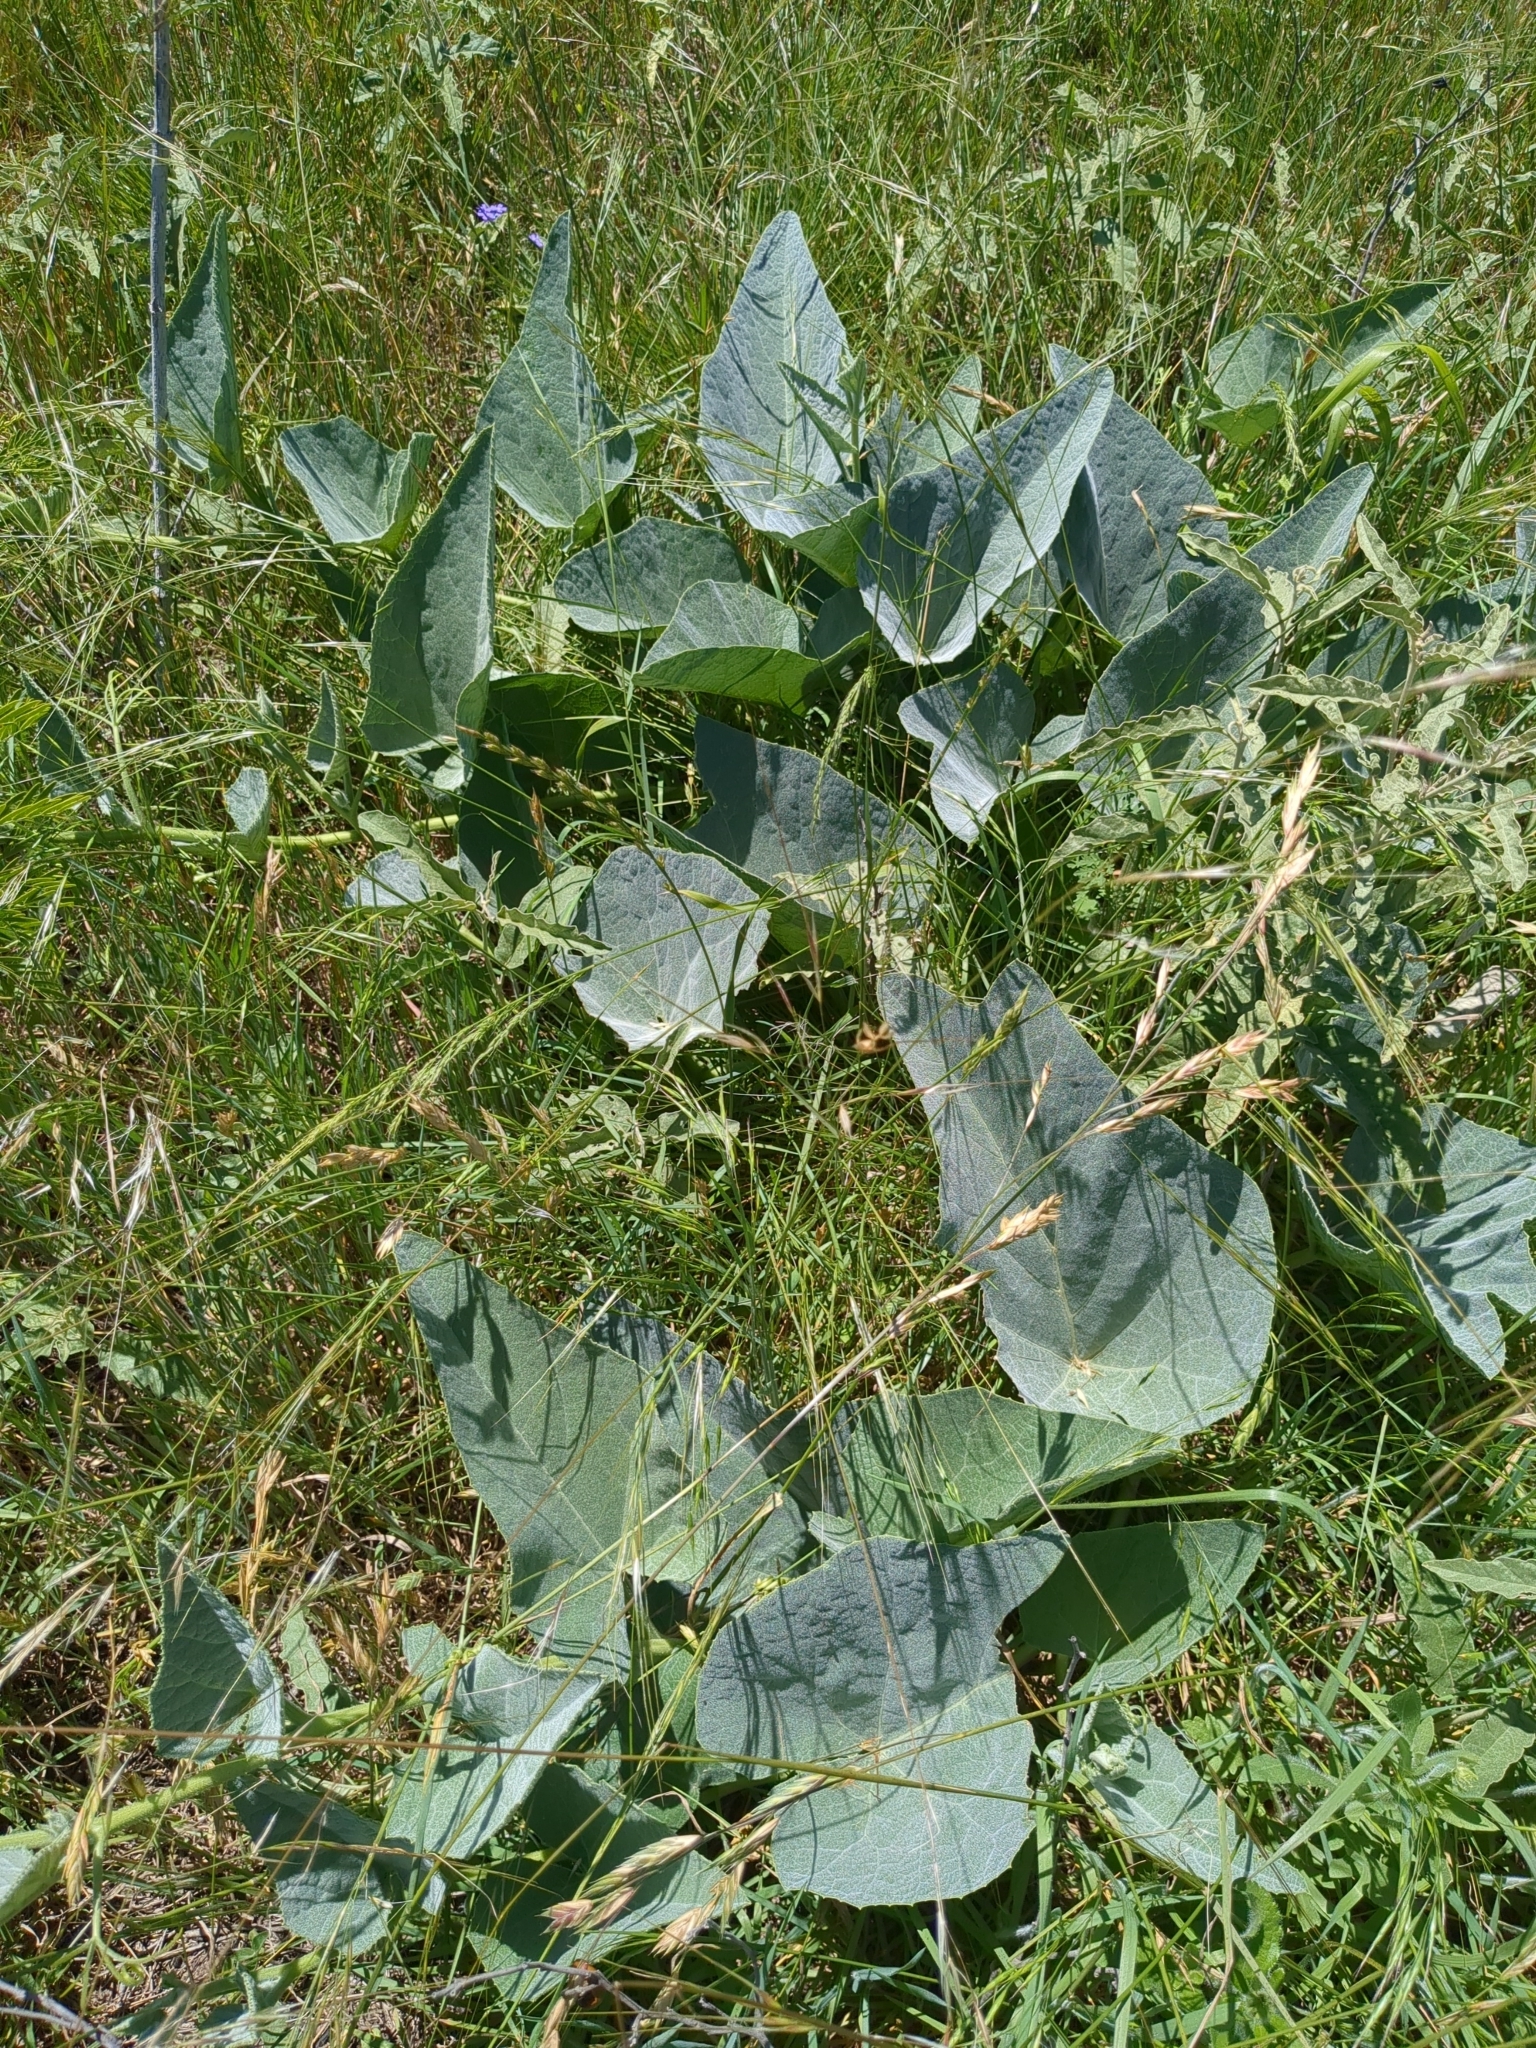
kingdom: Plantae
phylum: Tracheophyta
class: Magnoliopsida
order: Cucurbitales
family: Cucurbitaceae
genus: Cucurbita
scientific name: Cucurbita foetidissima
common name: Buffalo gourd
